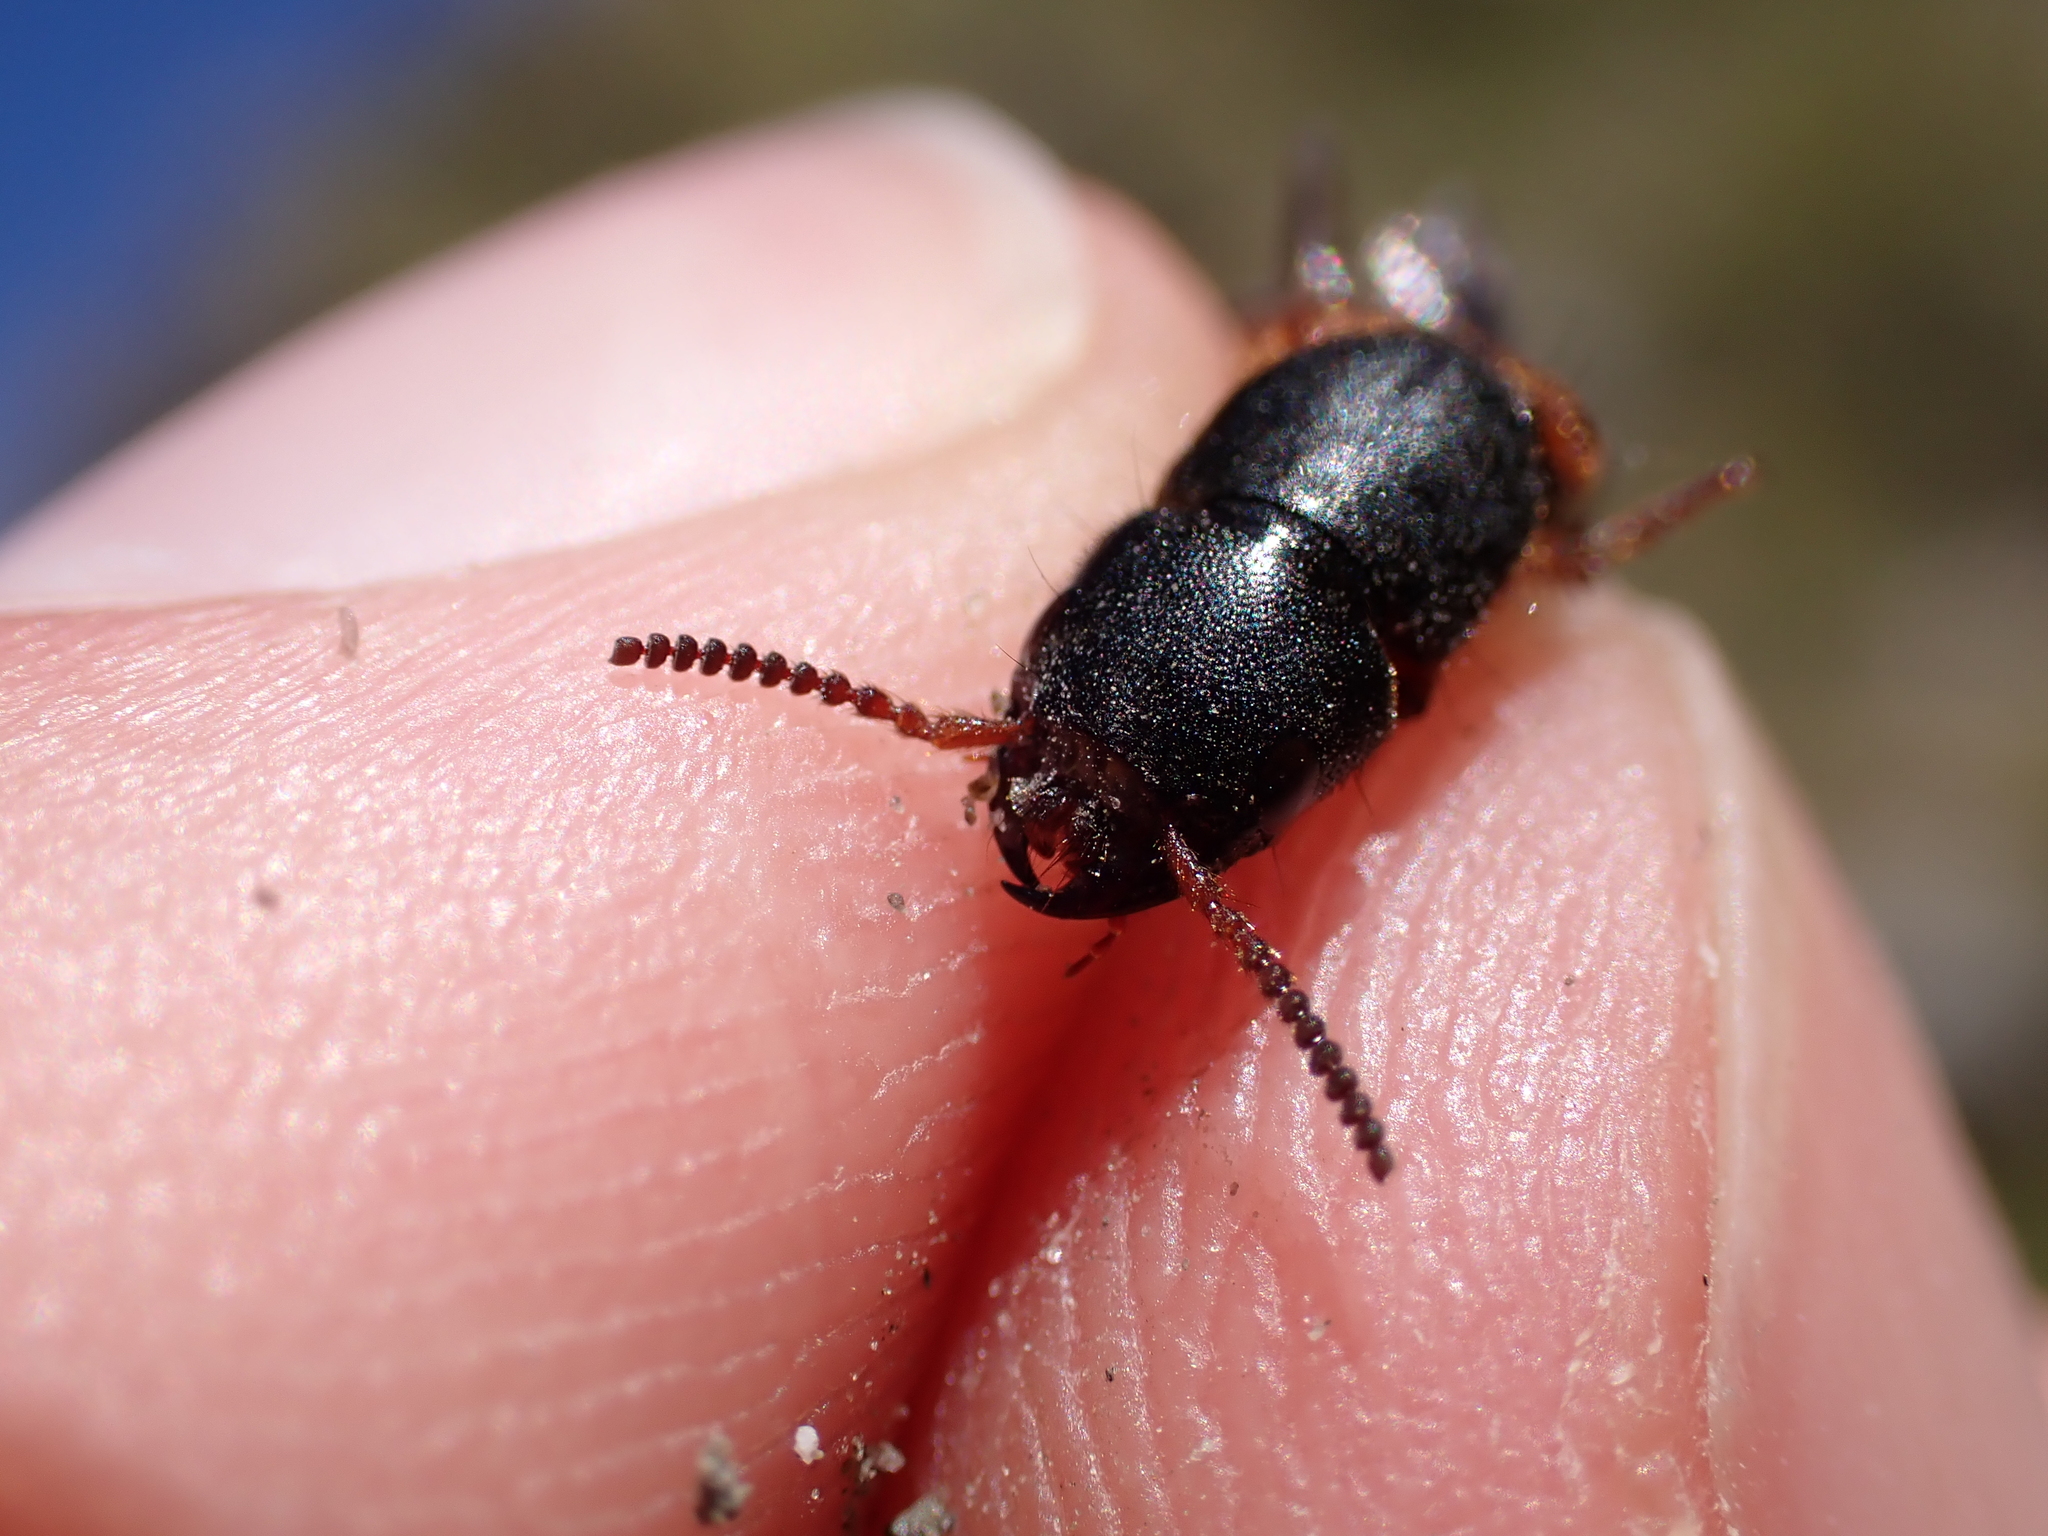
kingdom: Animalia
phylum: Arthropoda
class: Insecta
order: Coleoptera
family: Staphylinidae
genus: Platydracus
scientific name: Platydracus stercorarius
